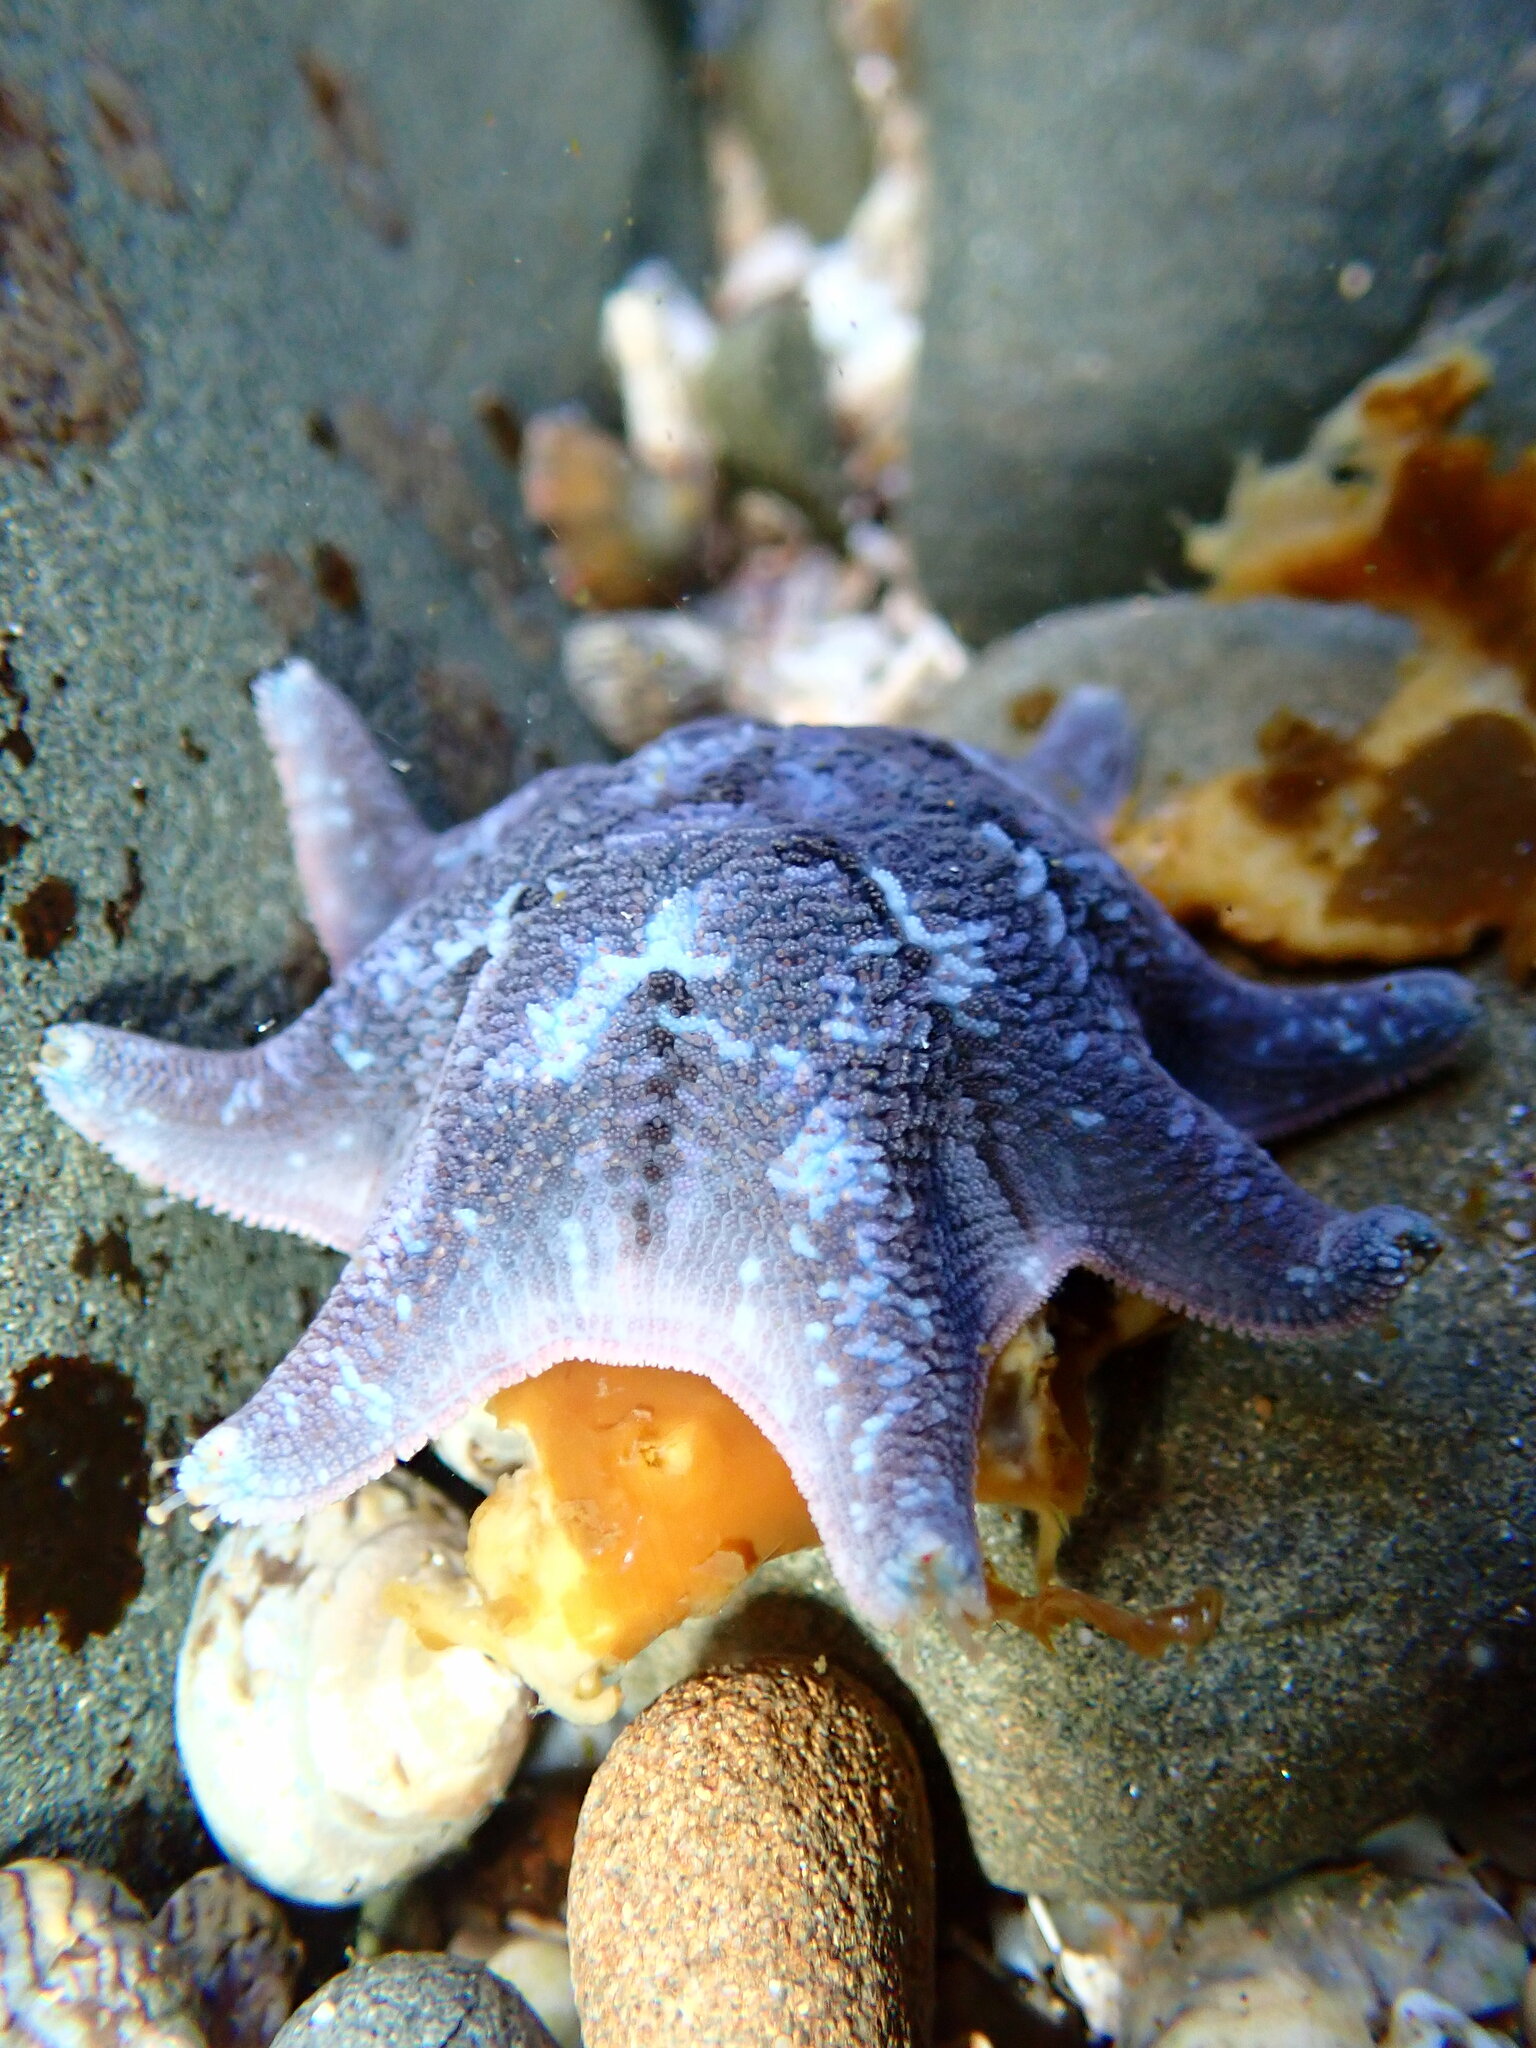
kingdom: Animalia
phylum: Echinodermata
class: Asteroidea
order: Valvatida
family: Asterinidae
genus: Meridiastra
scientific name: Meridiastra calcar
